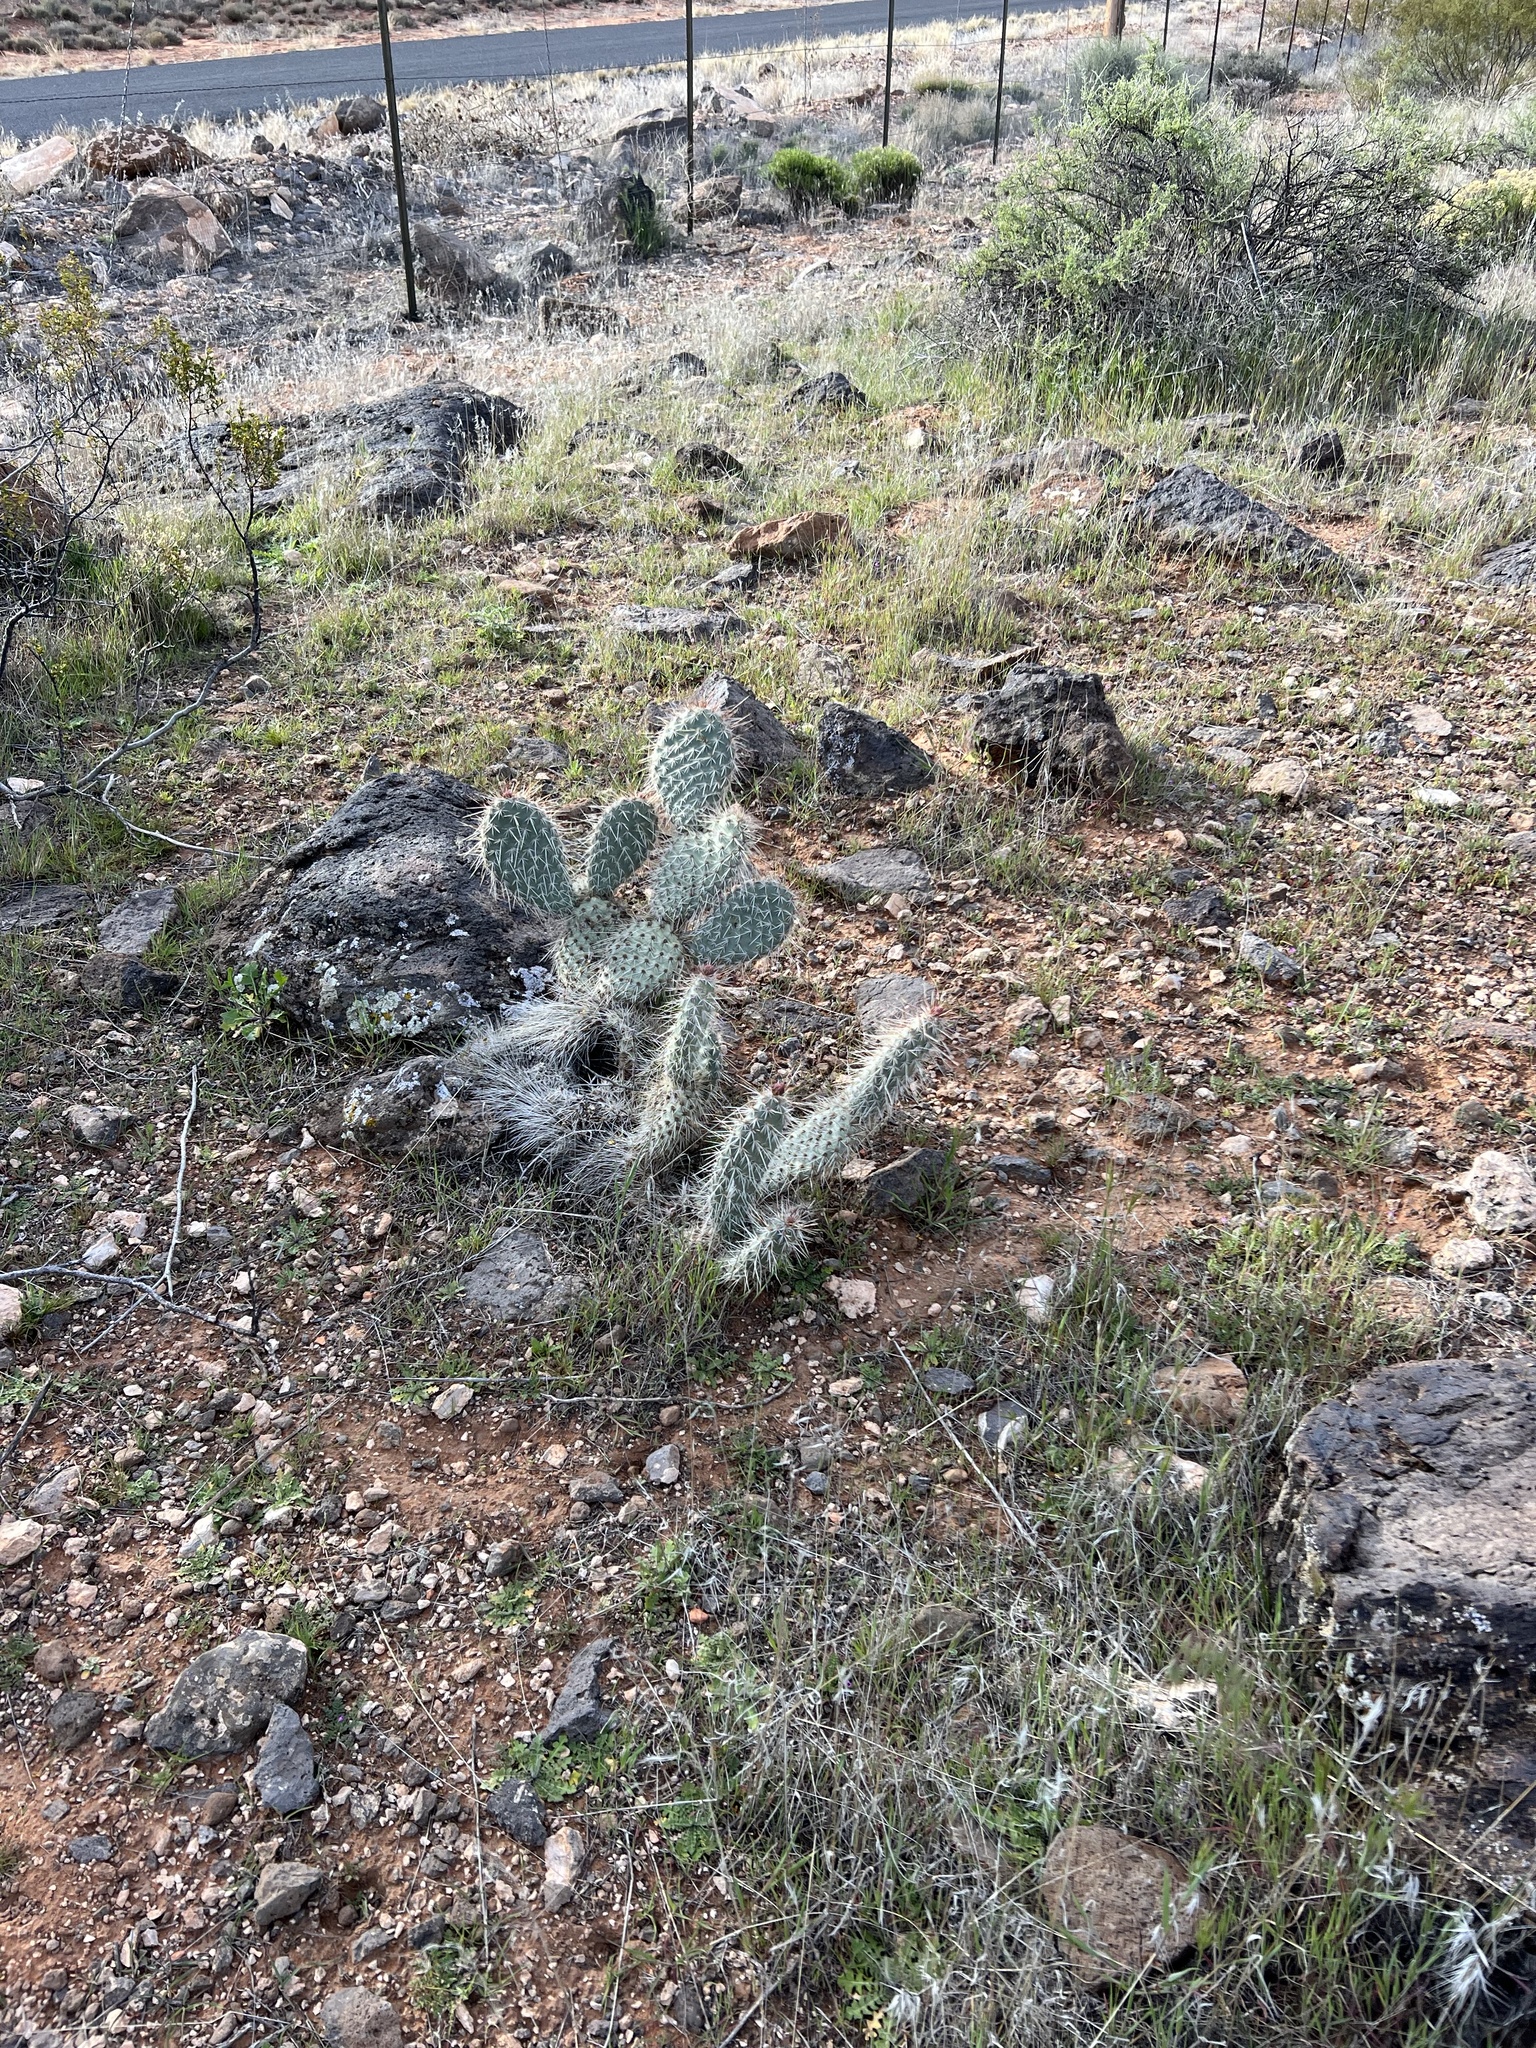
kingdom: Plantae
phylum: Tracheophyta
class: Magnoliopsida
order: Caryophyllales
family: Cactaceae
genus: Opuntia
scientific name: Opuntia polyacantha
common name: Plains prickly-pear
